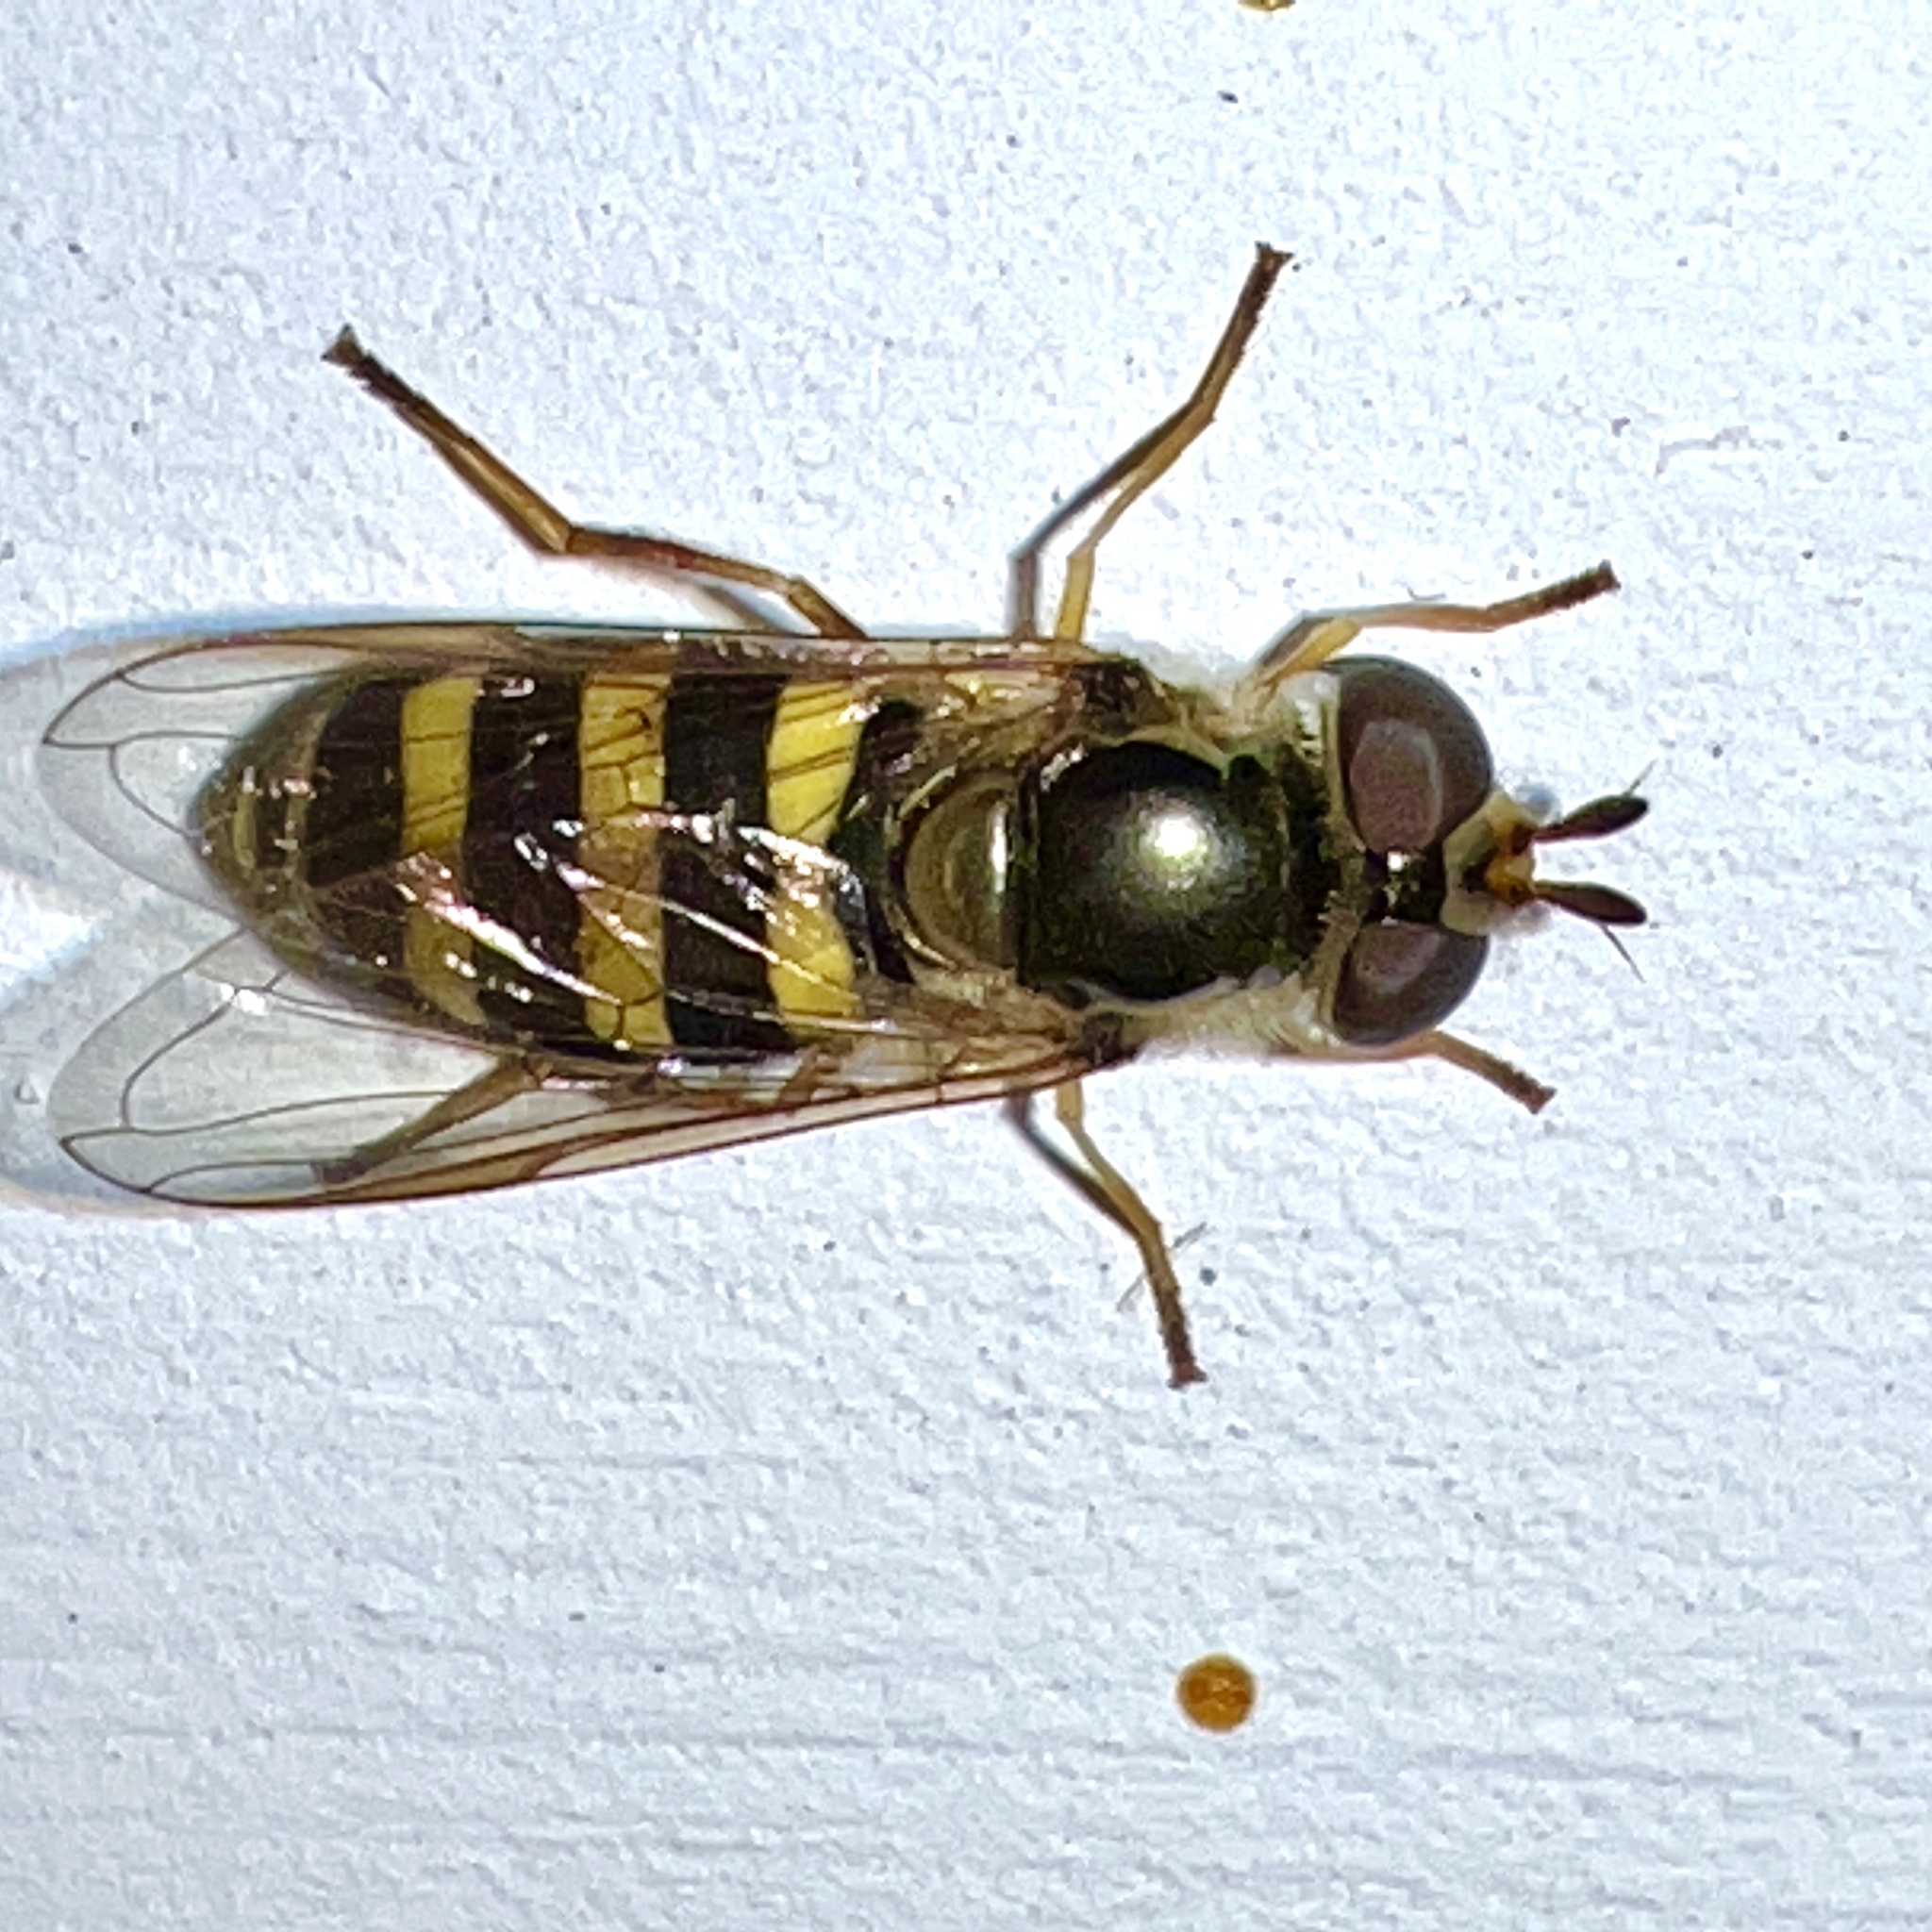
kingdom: Animalia
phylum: Arthropoda
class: Insecta
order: Diptera
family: Syrphidae
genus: Eupeodes
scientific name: Eupeodes
